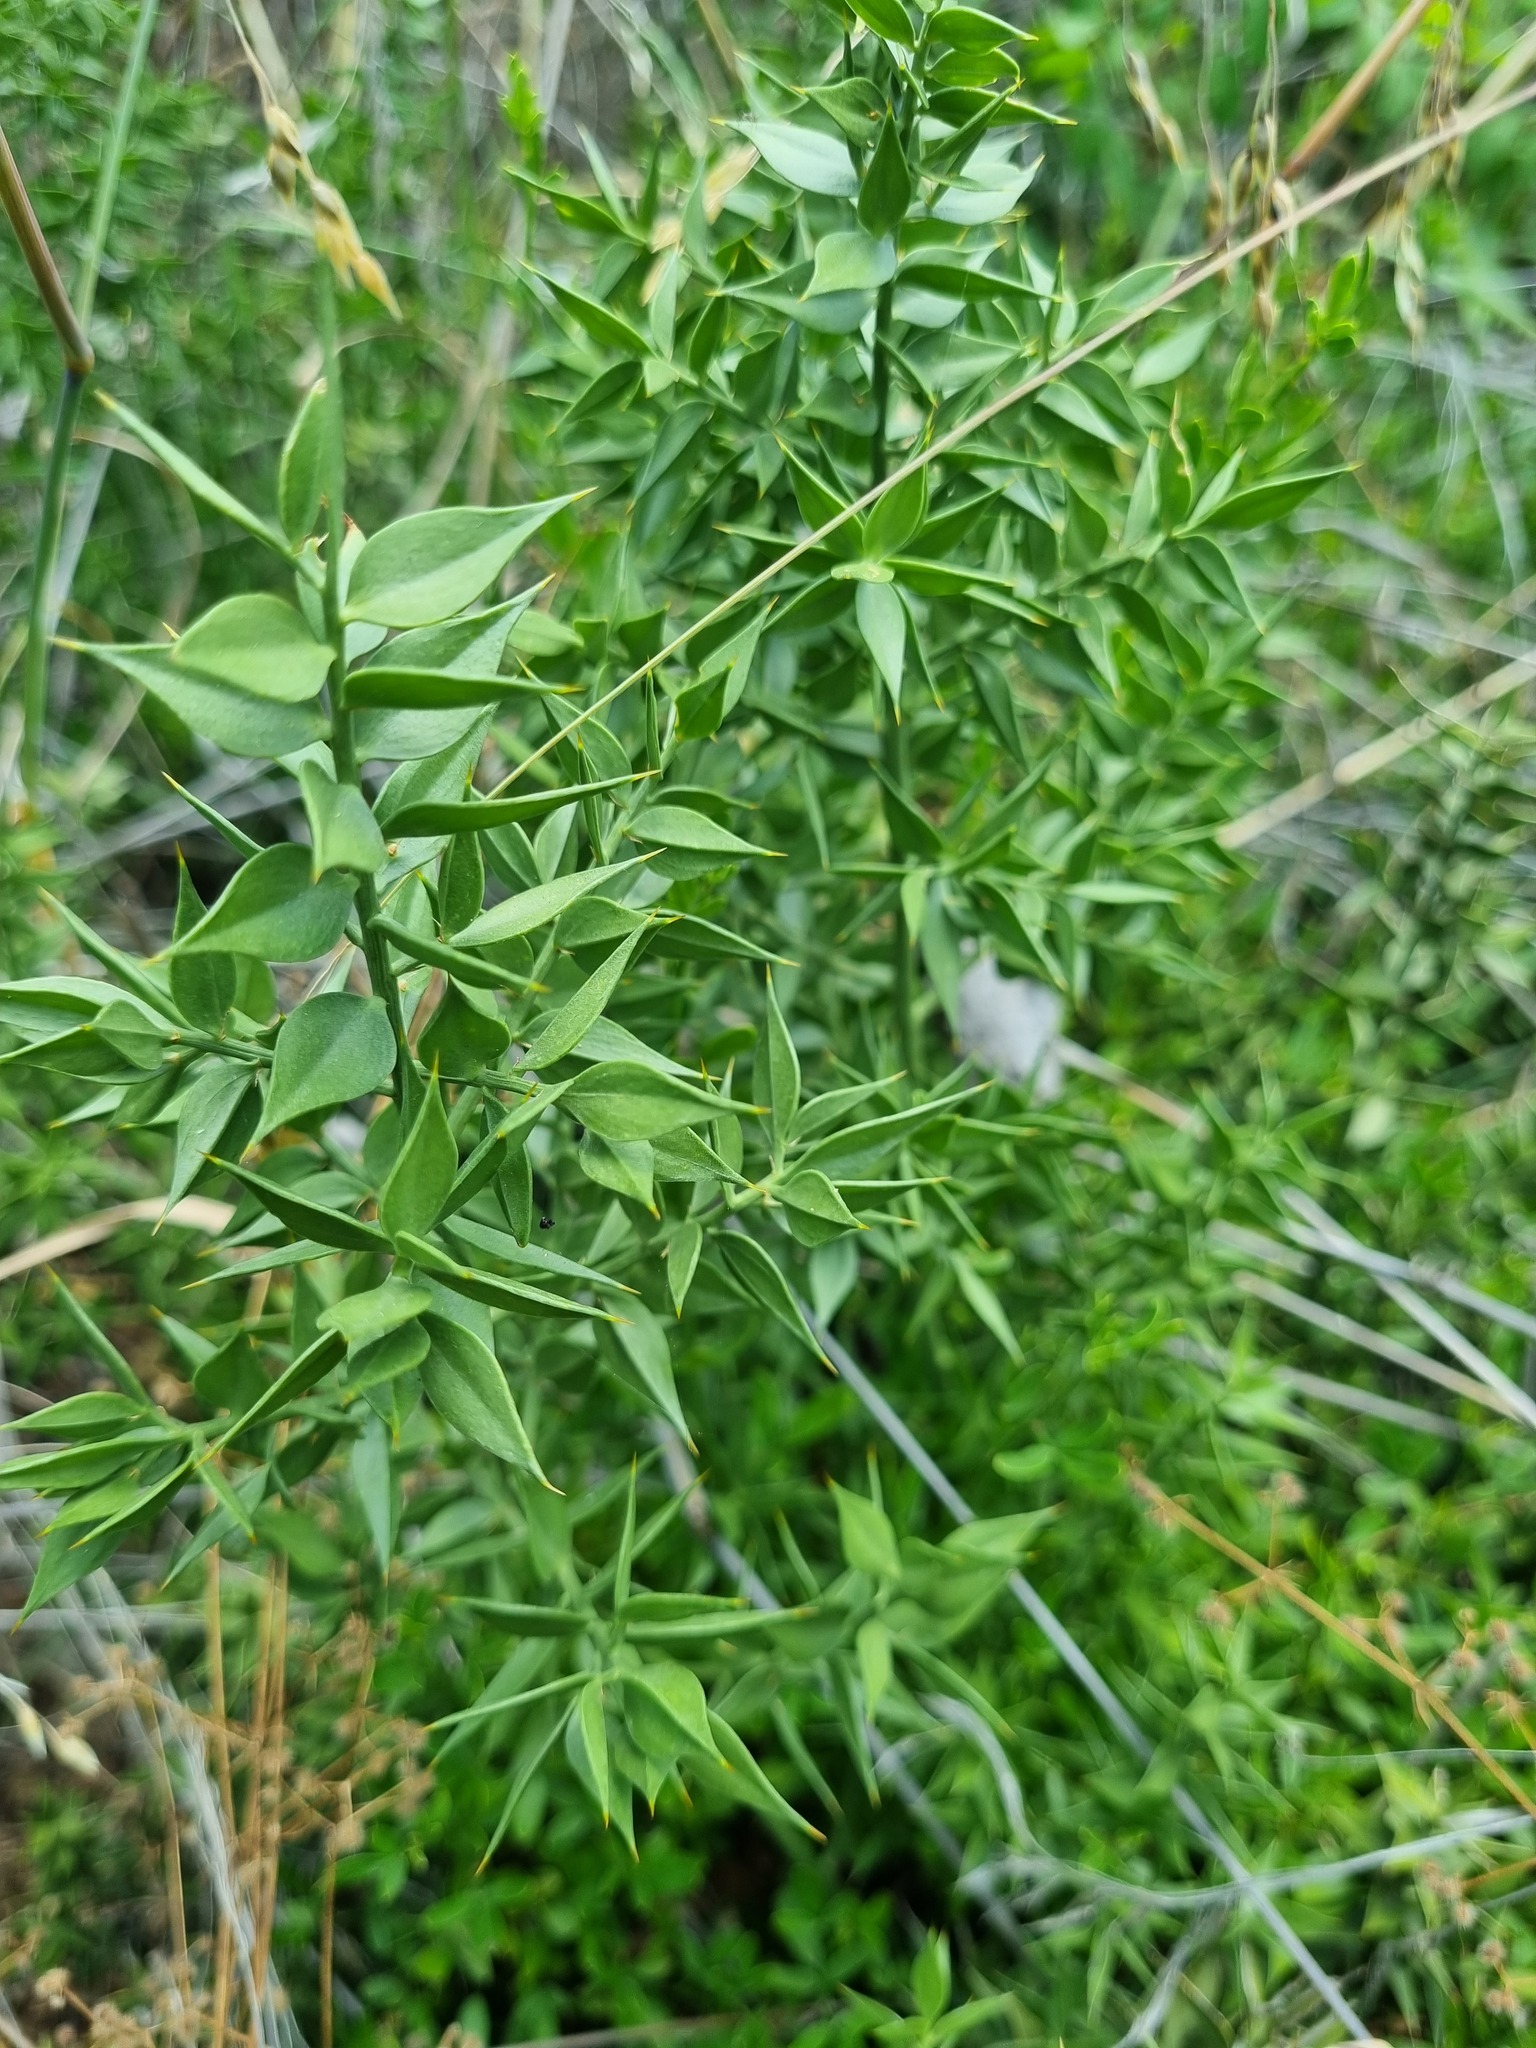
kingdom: Plantae
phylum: Tracheophyta
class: Liliopsida
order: Asparagales
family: Asparagaceae
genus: Ruscus
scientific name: Ruscus aculeatus
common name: Butcher's-broom
